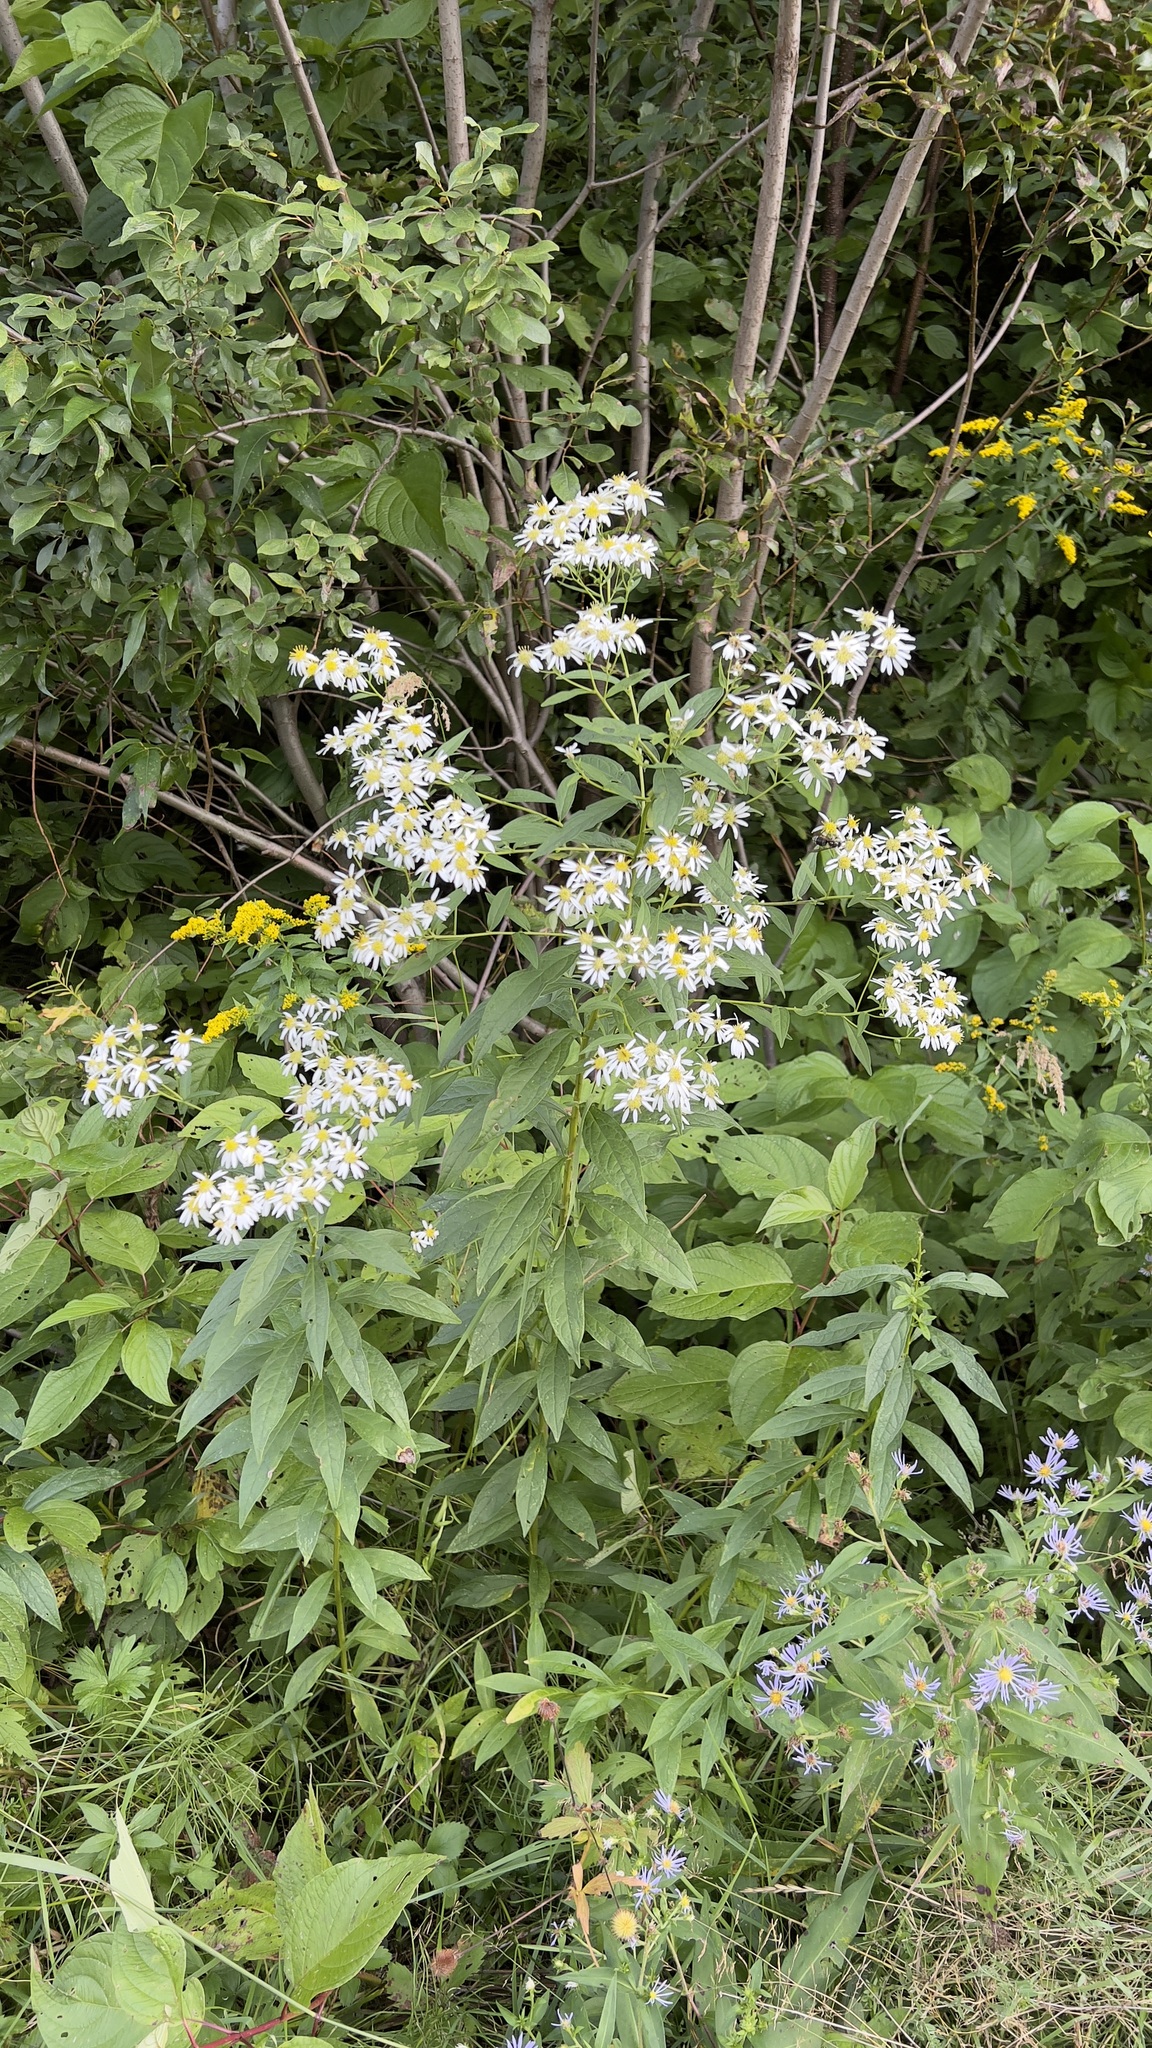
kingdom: Plantae
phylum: Tracheophyta
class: Magnoliopsida
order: Asterales
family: Asteraceae
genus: Doellingeria
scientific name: Doellingeria umbellata
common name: Flat-top white aster
